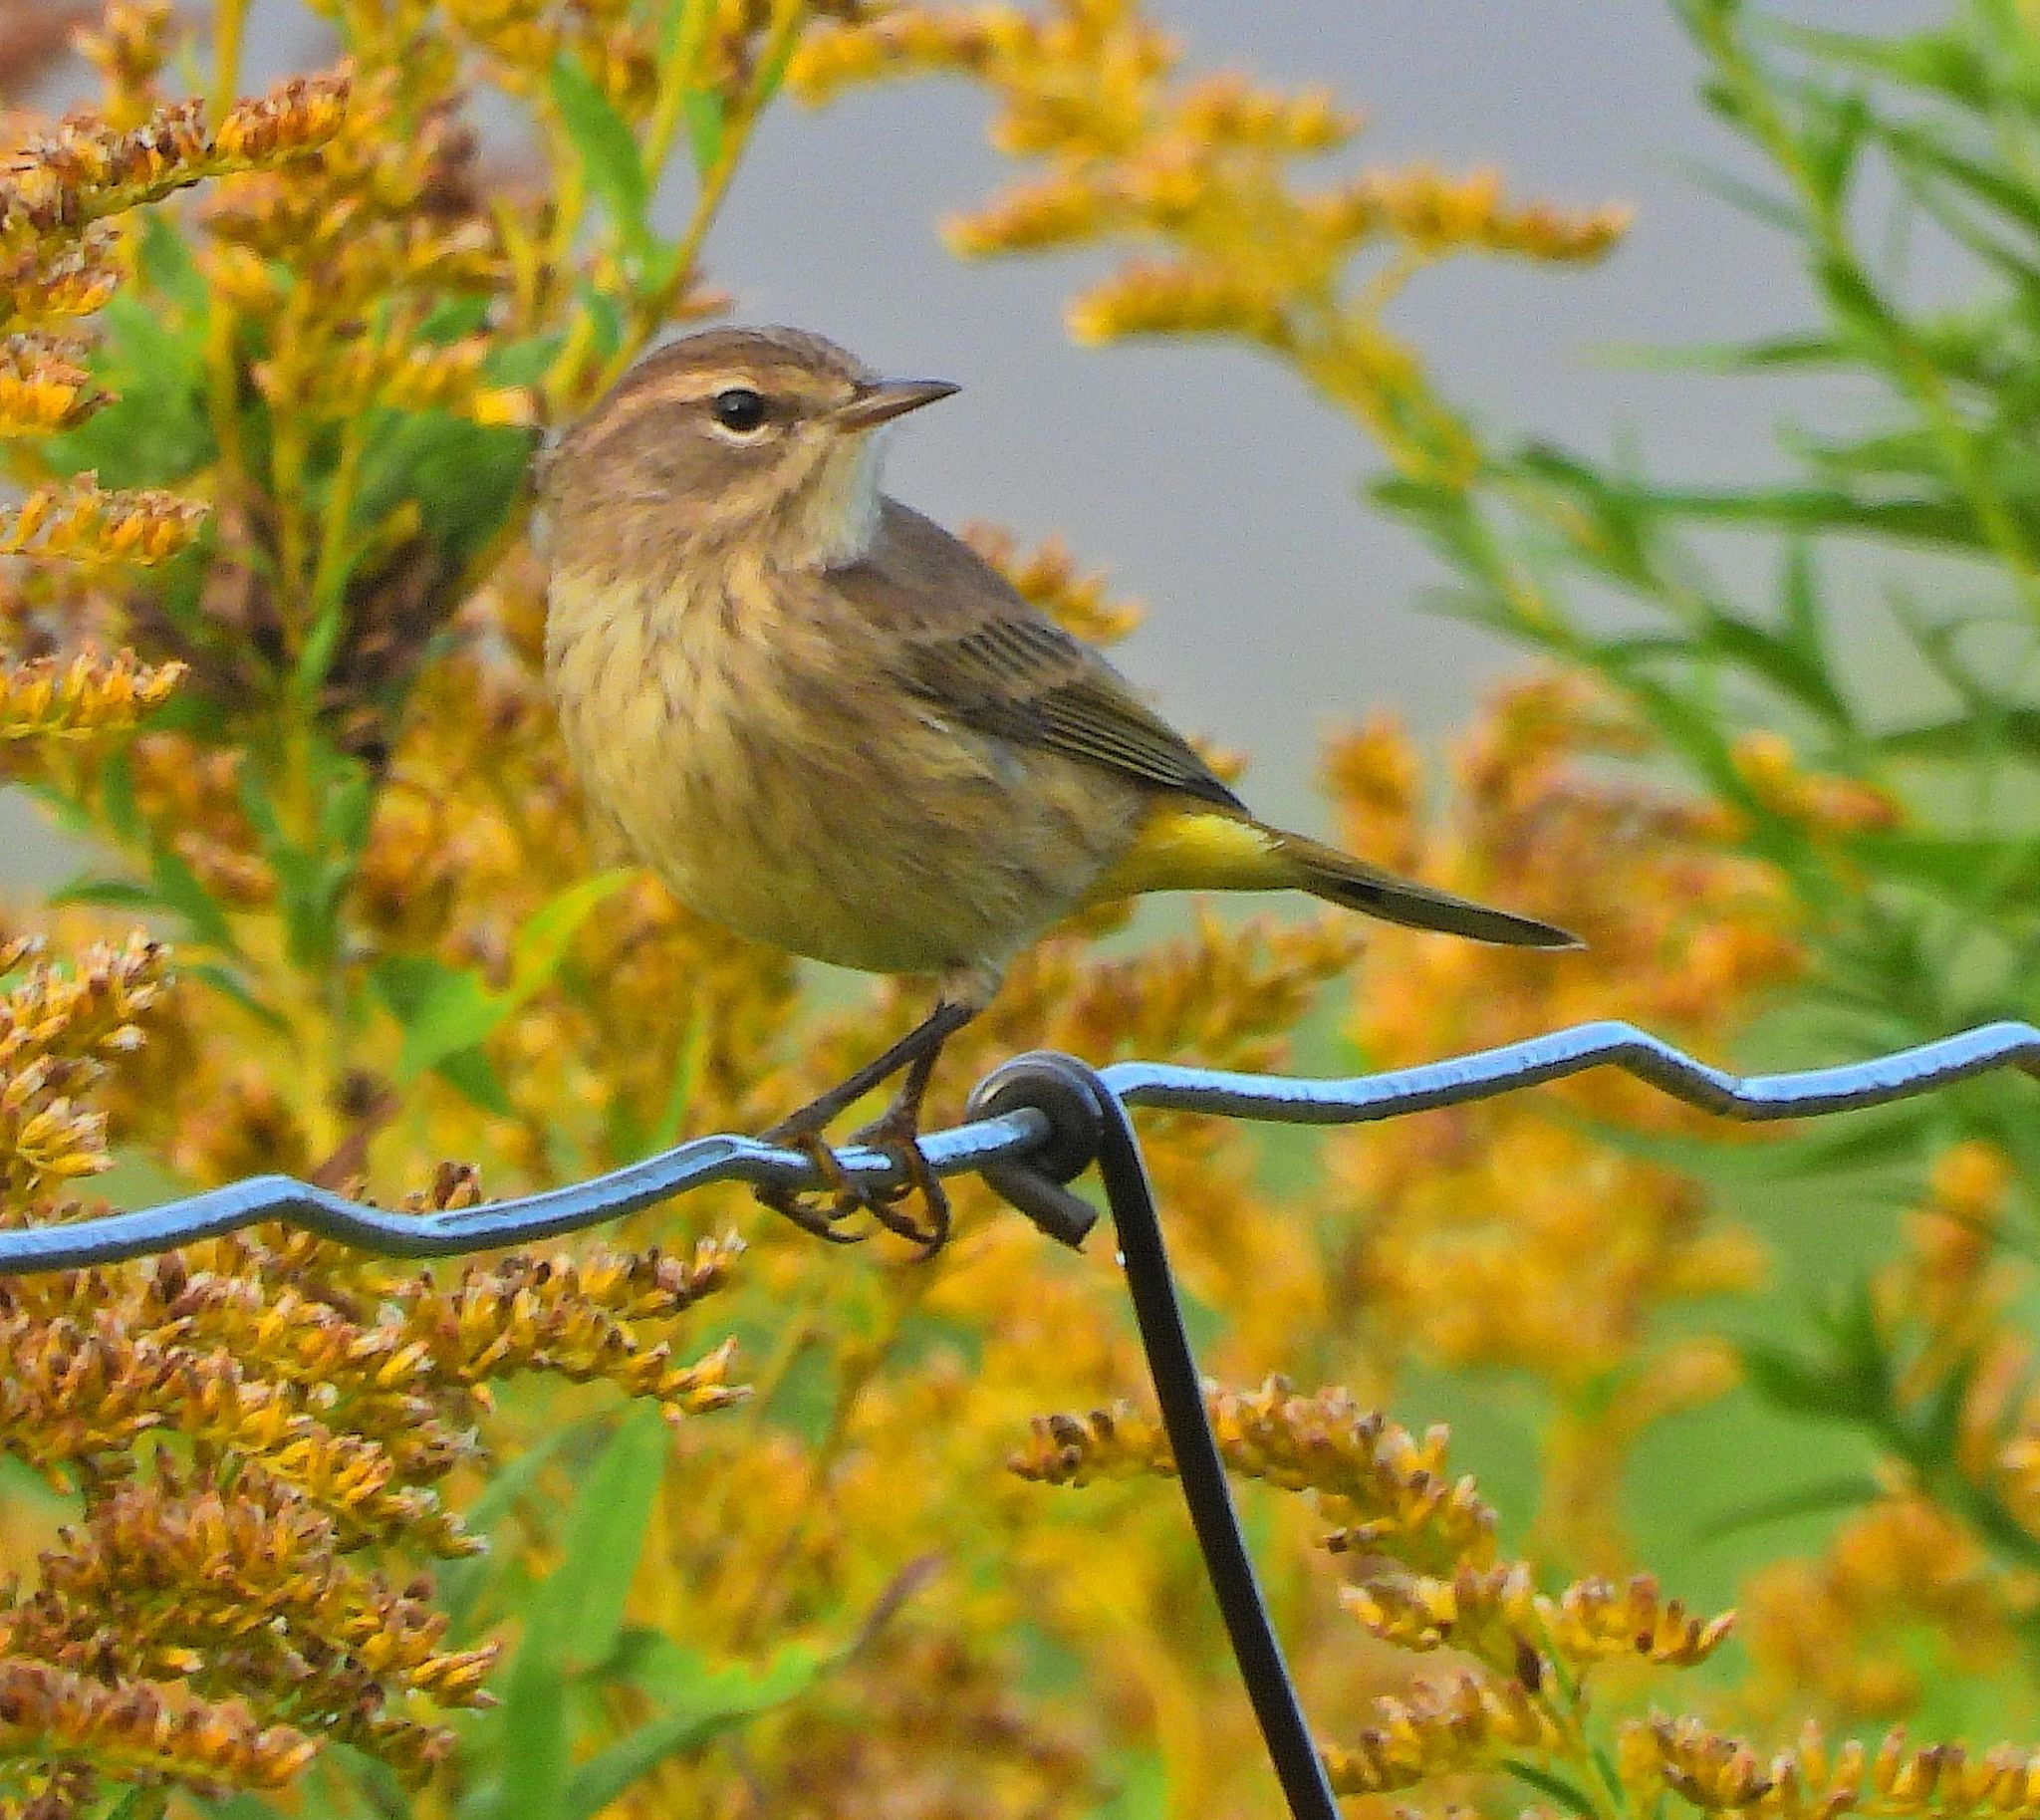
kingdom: Animalia
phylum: Chordata
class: Aves
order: Passeriformes
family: Parulidae
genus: Setophaga
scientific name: Setophaga palmarum
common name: Palm warbler
